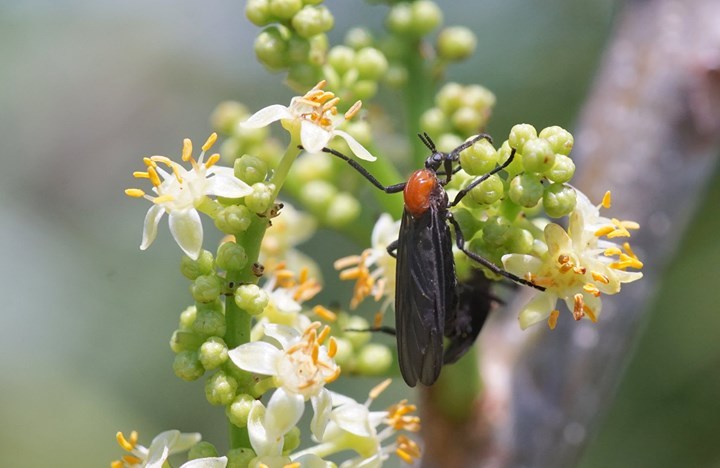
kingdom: Animalia
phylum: Arthropoda
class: Insecta
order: Diptera
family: Bibionidae
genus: Plecia
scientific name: Plecia nearctica
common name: March fly
